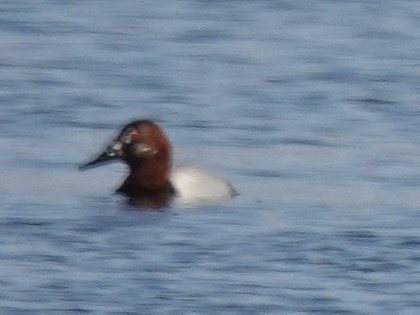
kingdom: Animalia
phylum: Chordata
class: Aves
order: Anseriformes
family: Anatidae
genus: Aythya
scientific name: Aythya valisineria
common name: Canvasback
